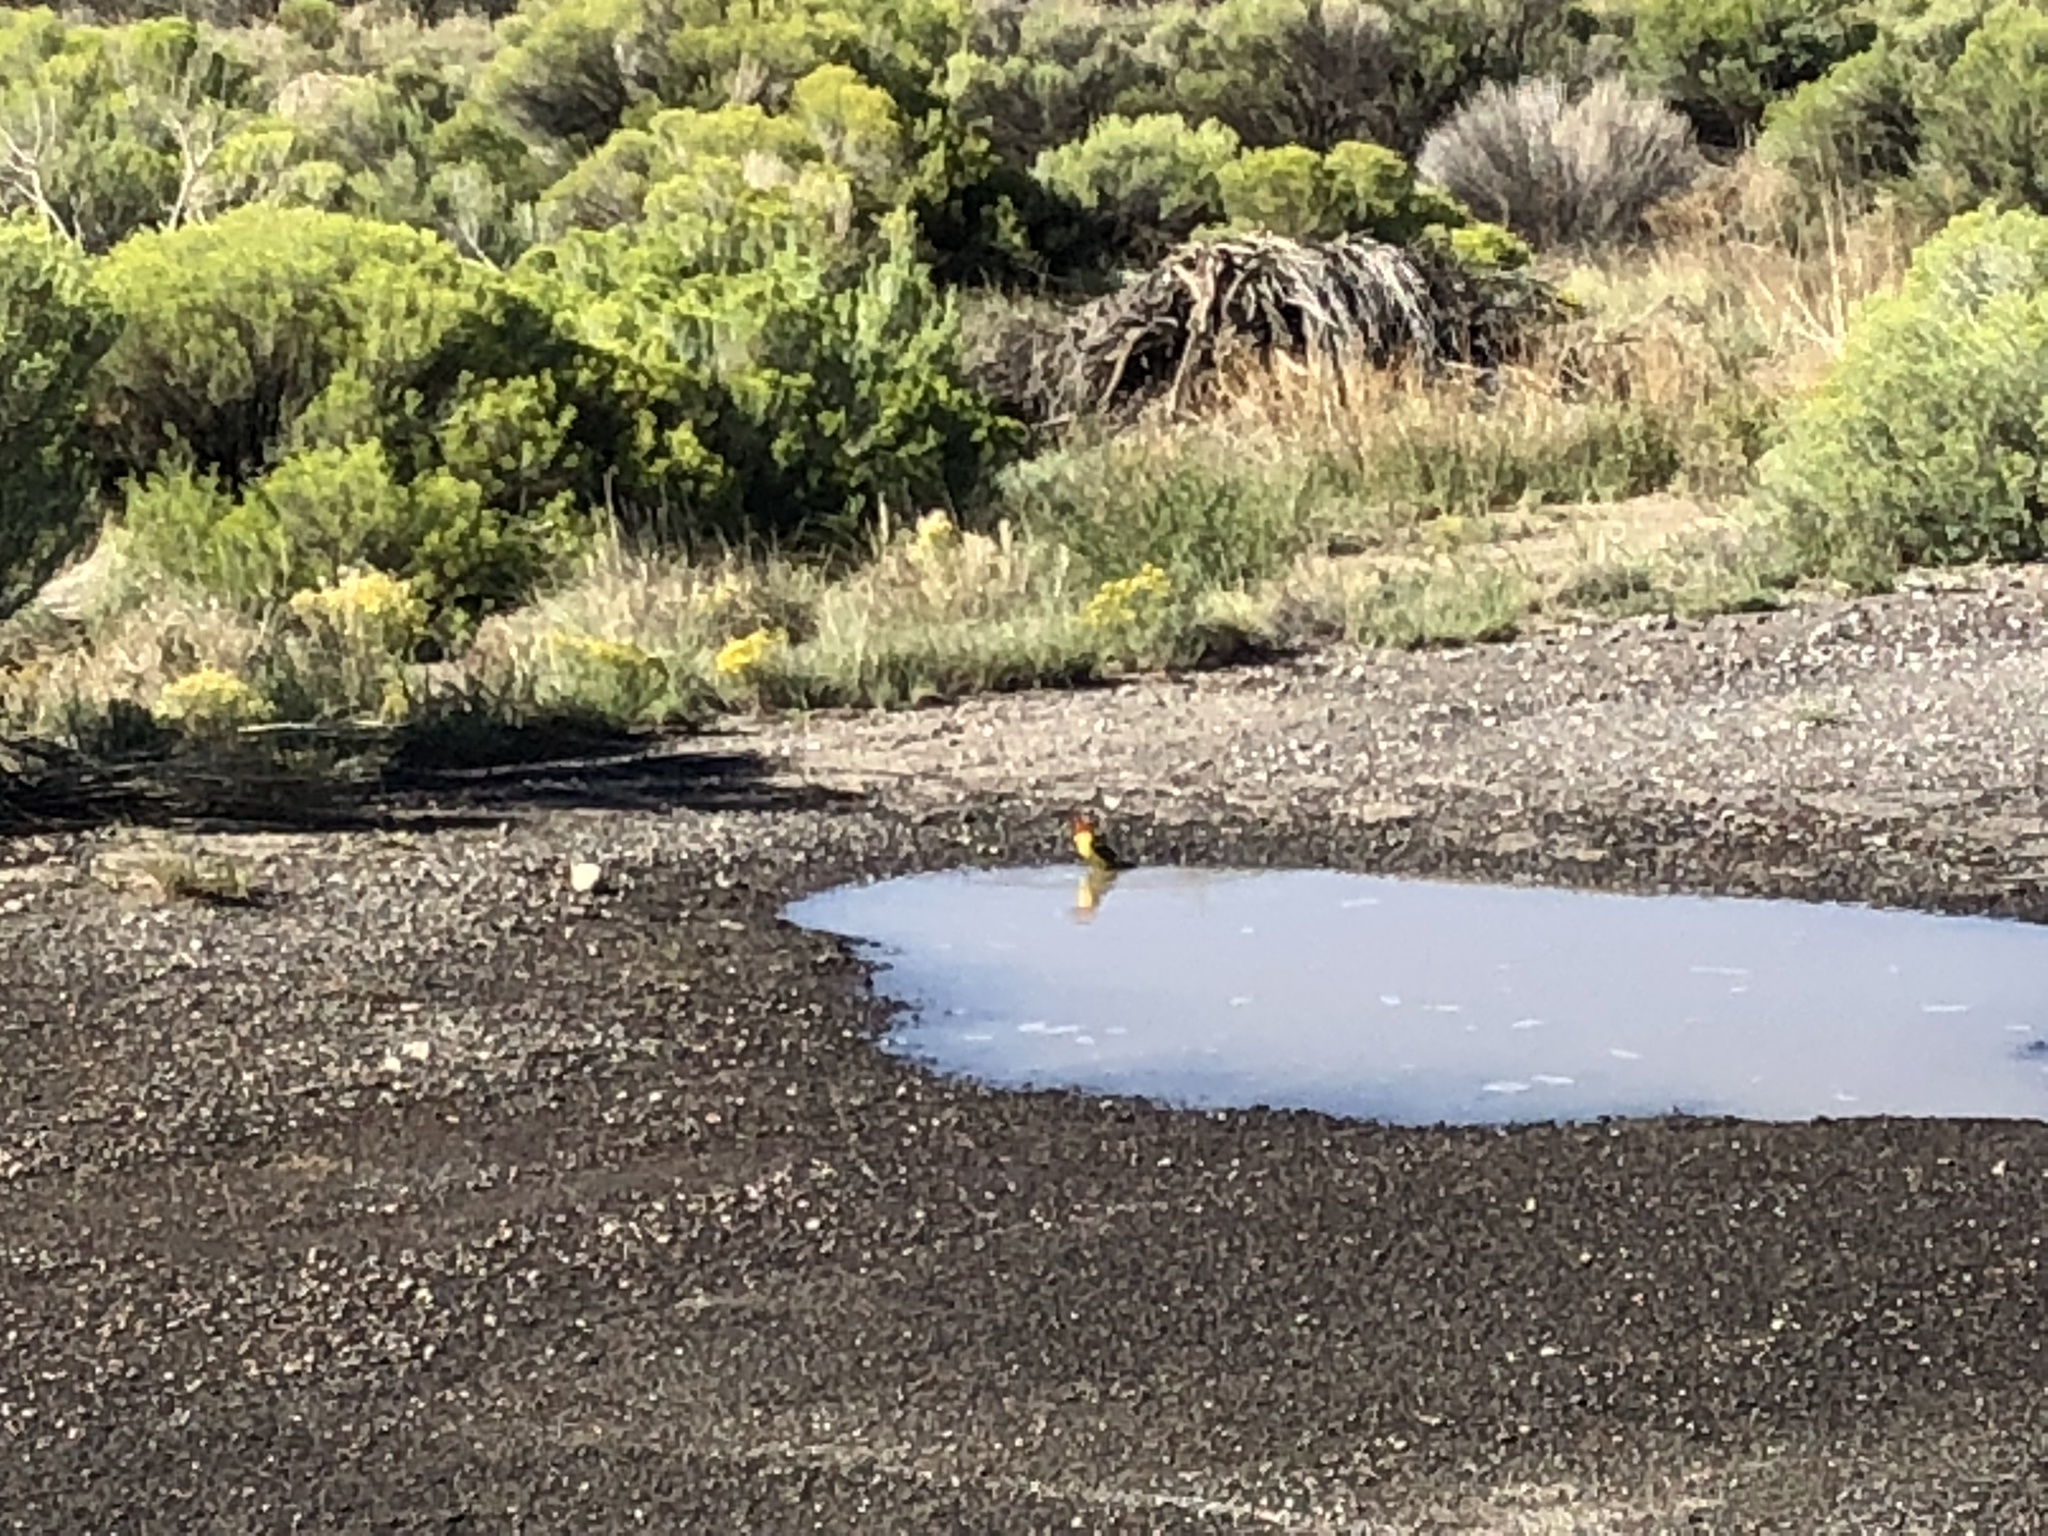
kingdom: Animalia
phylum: Chordata
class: Aves
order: Passeriformes
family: Cardinalidae
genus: Piranga
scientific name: Piranga ludoviciana
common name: Western tanager
